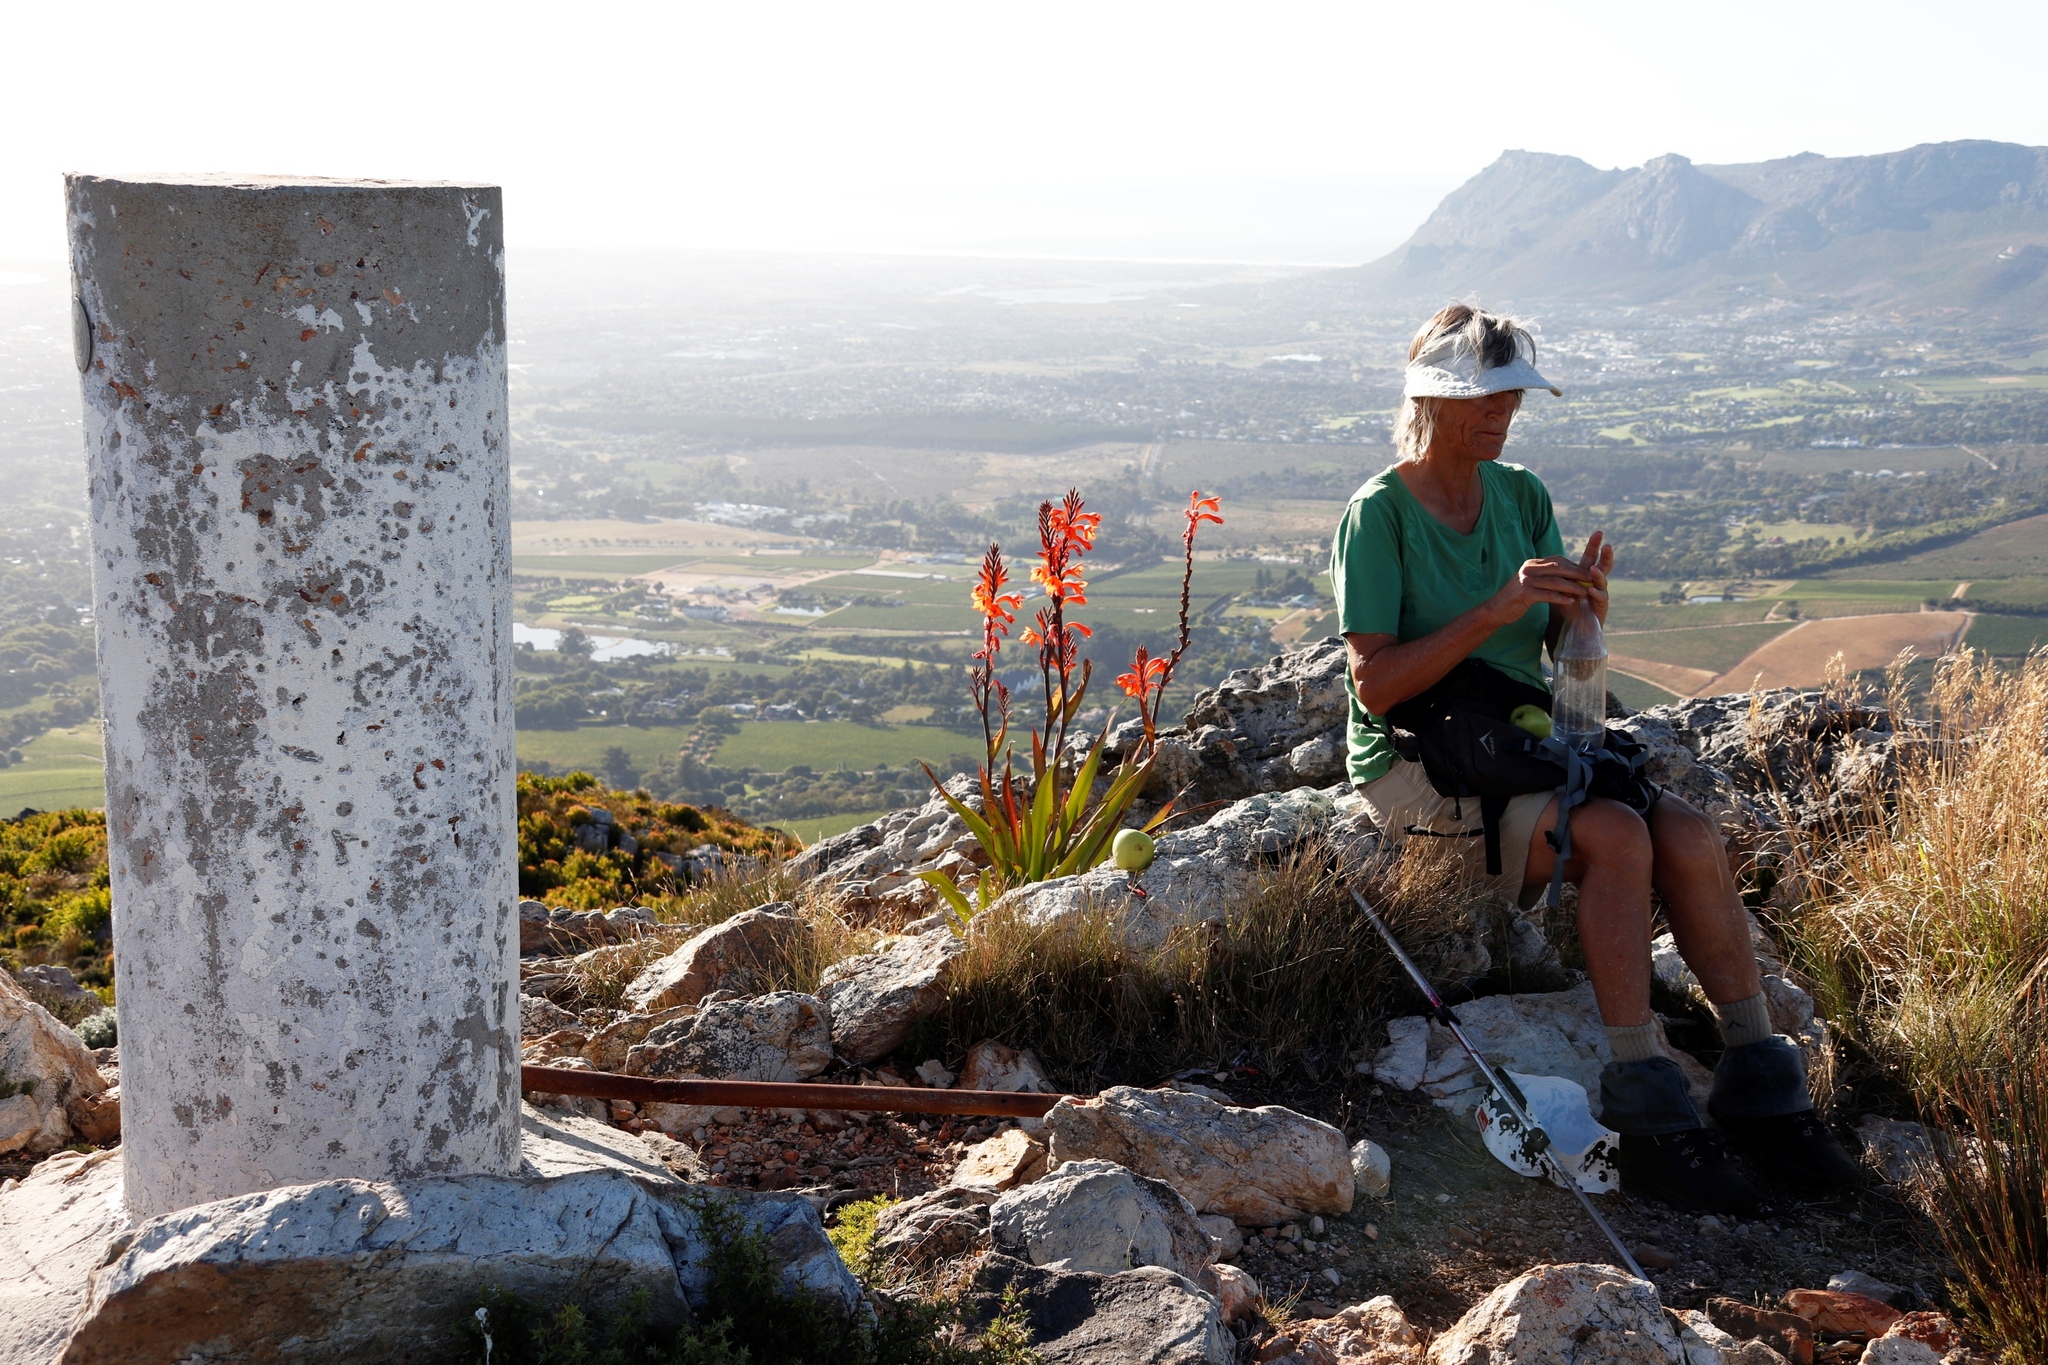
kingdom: Plantae
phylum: Tracheophyta
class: Liliopsida
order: Asparagales
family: Iridaceae
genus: Watsonia
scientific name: Watsonia tabularis
